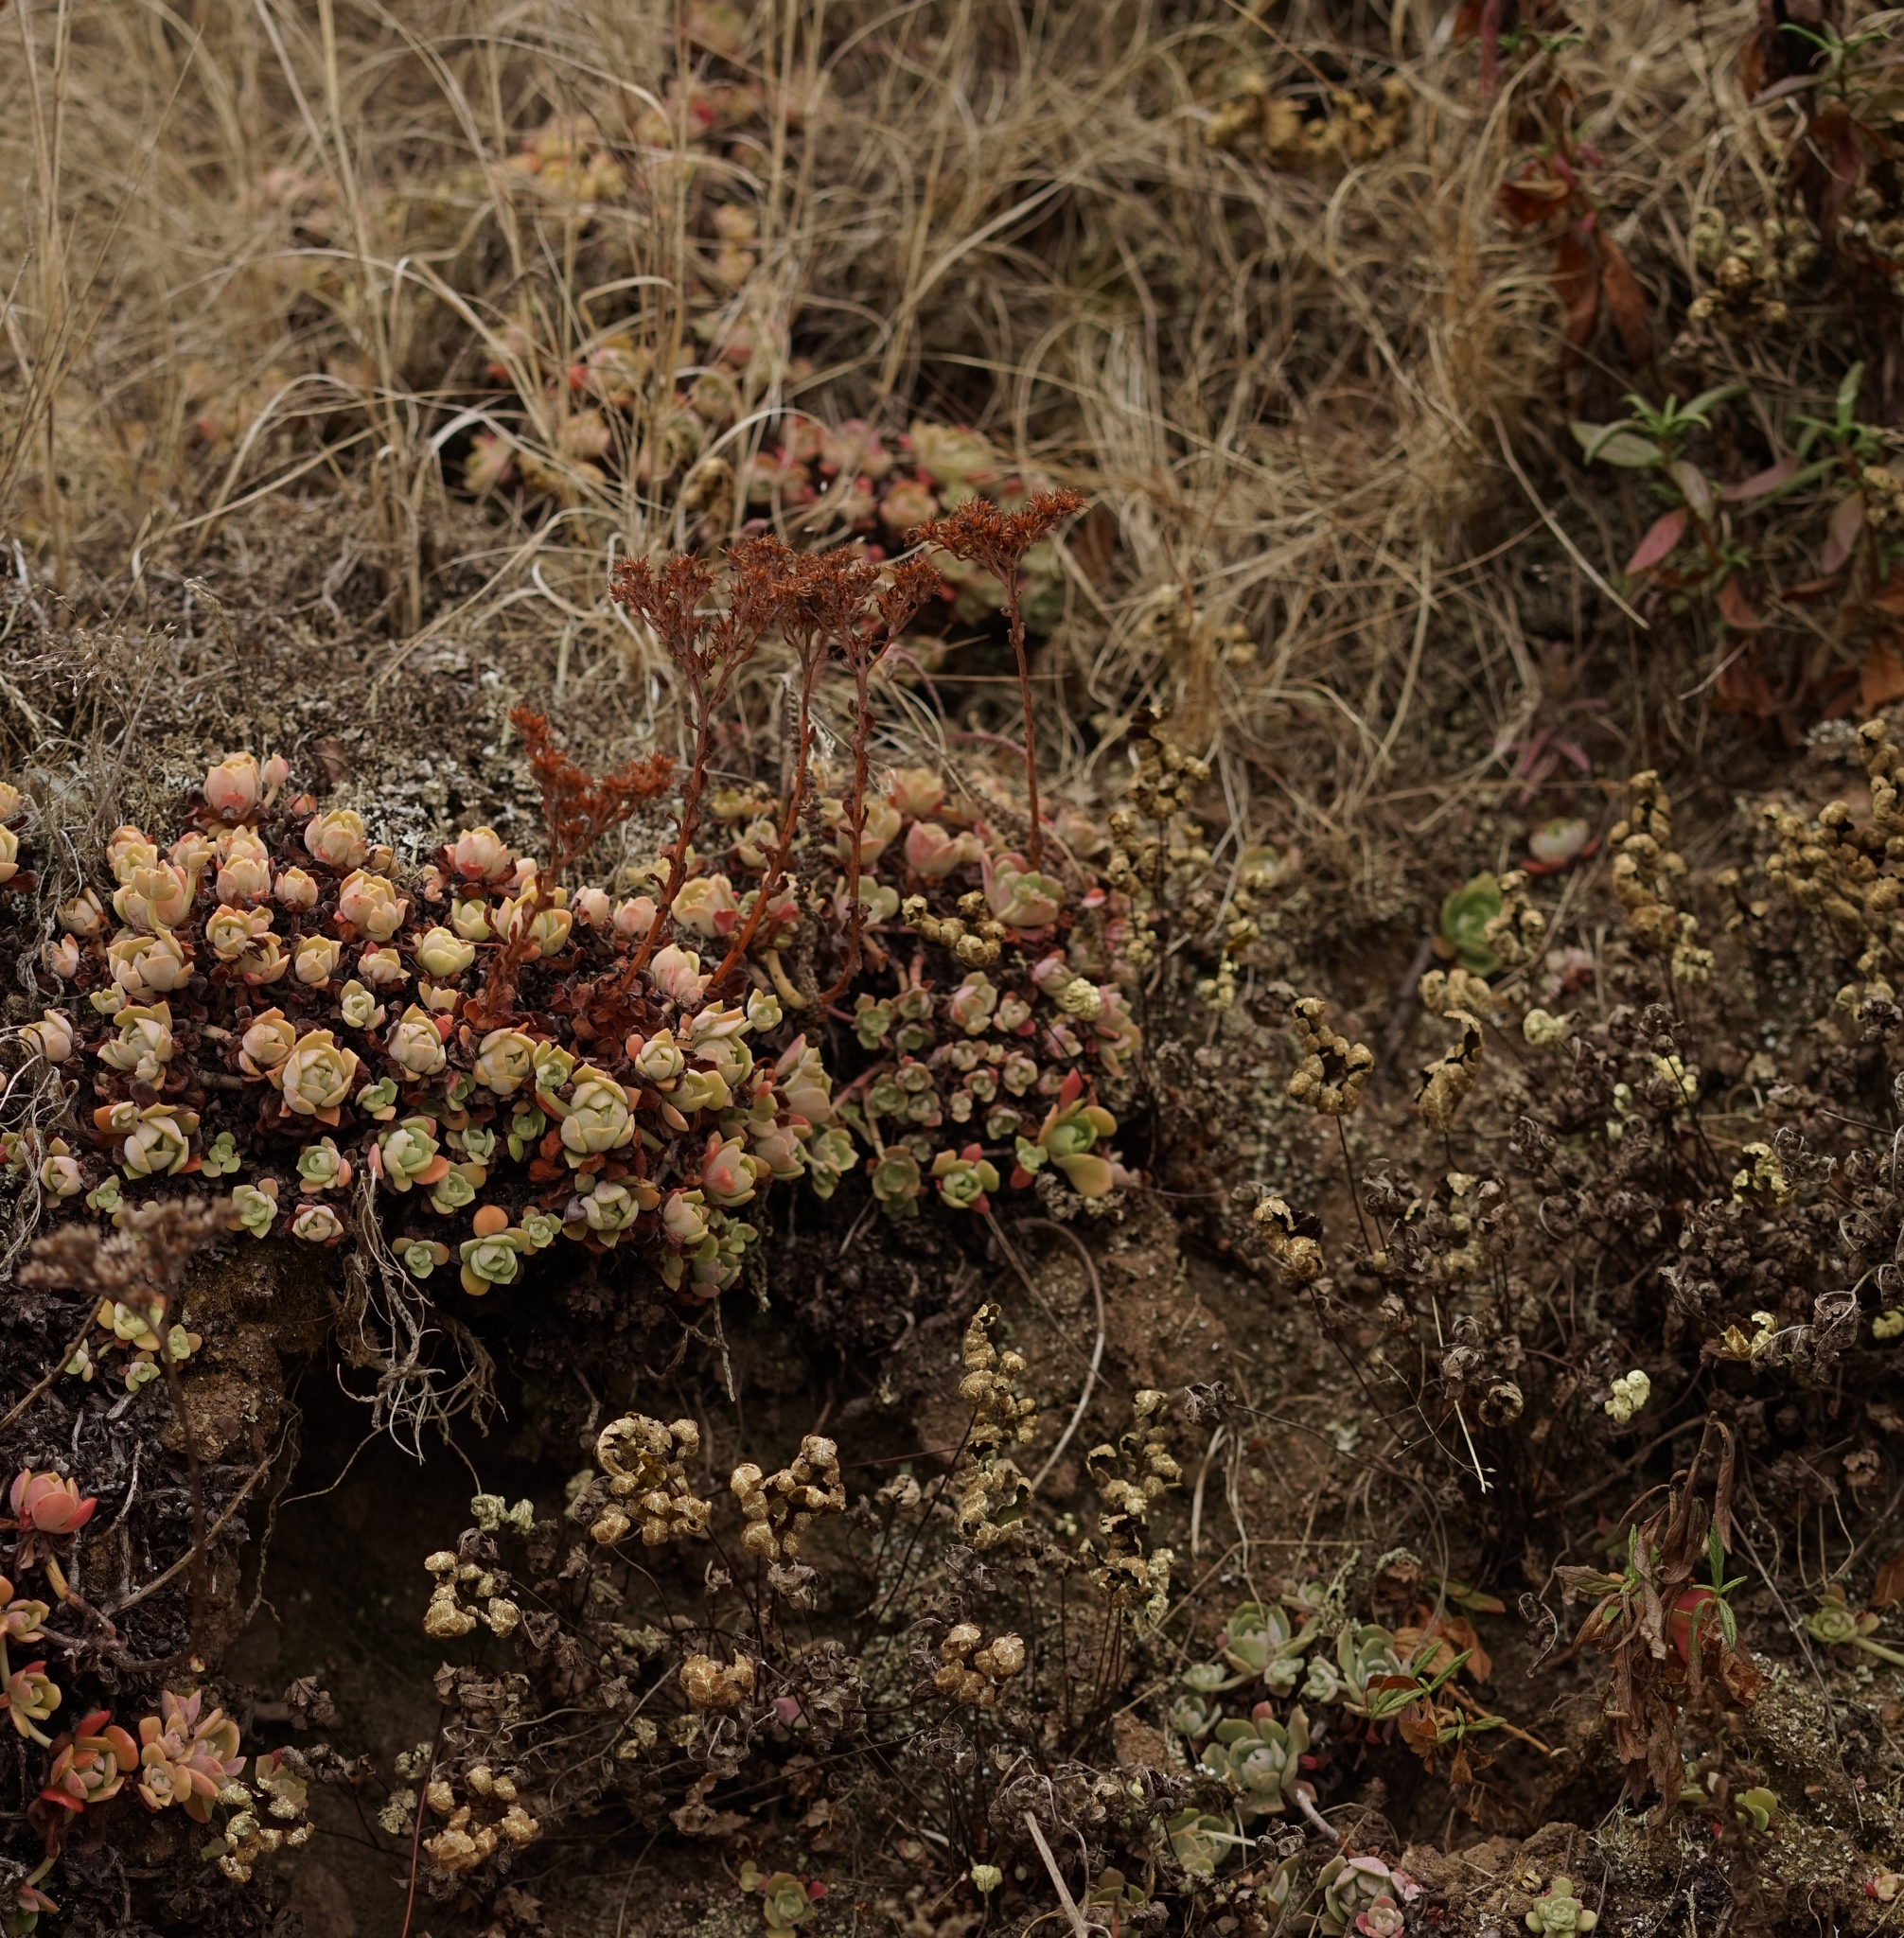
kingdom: Plantae
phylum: Tracheophyta
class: Magnoliopsida
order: Saxifragales
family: Crassulaceae
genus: Sedum
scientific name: Sedum spathulifolium
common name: Colorado stonecrop
